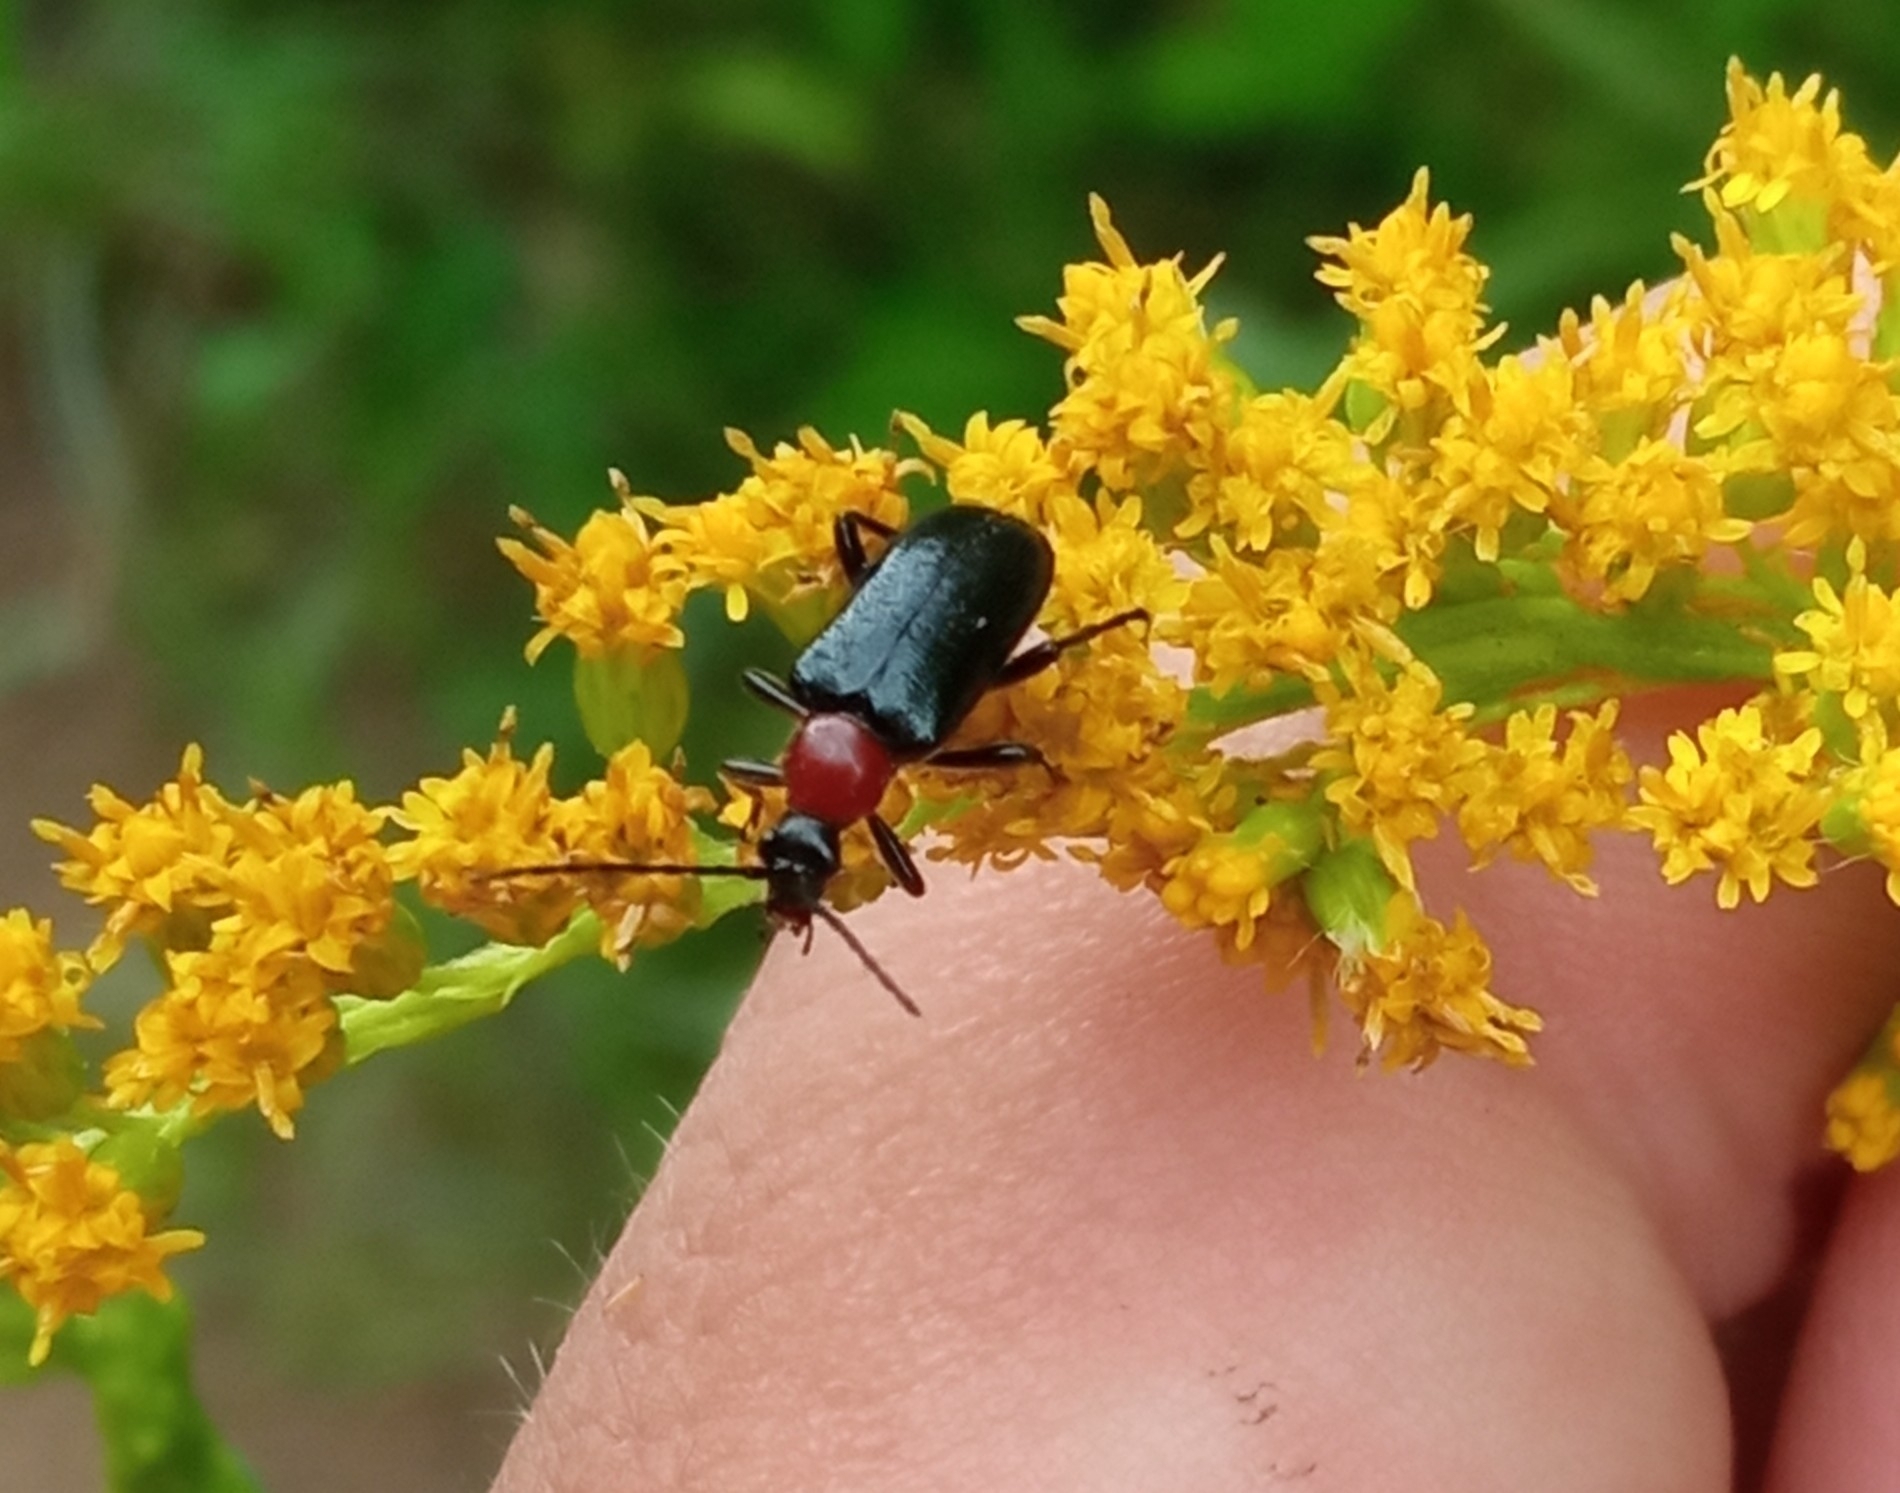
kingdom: Animalia
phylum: Arthropoda
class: Insecta
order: Coleoptera
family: Cerambycidae
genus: Dinoptera
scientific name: Dinoptera collaris
